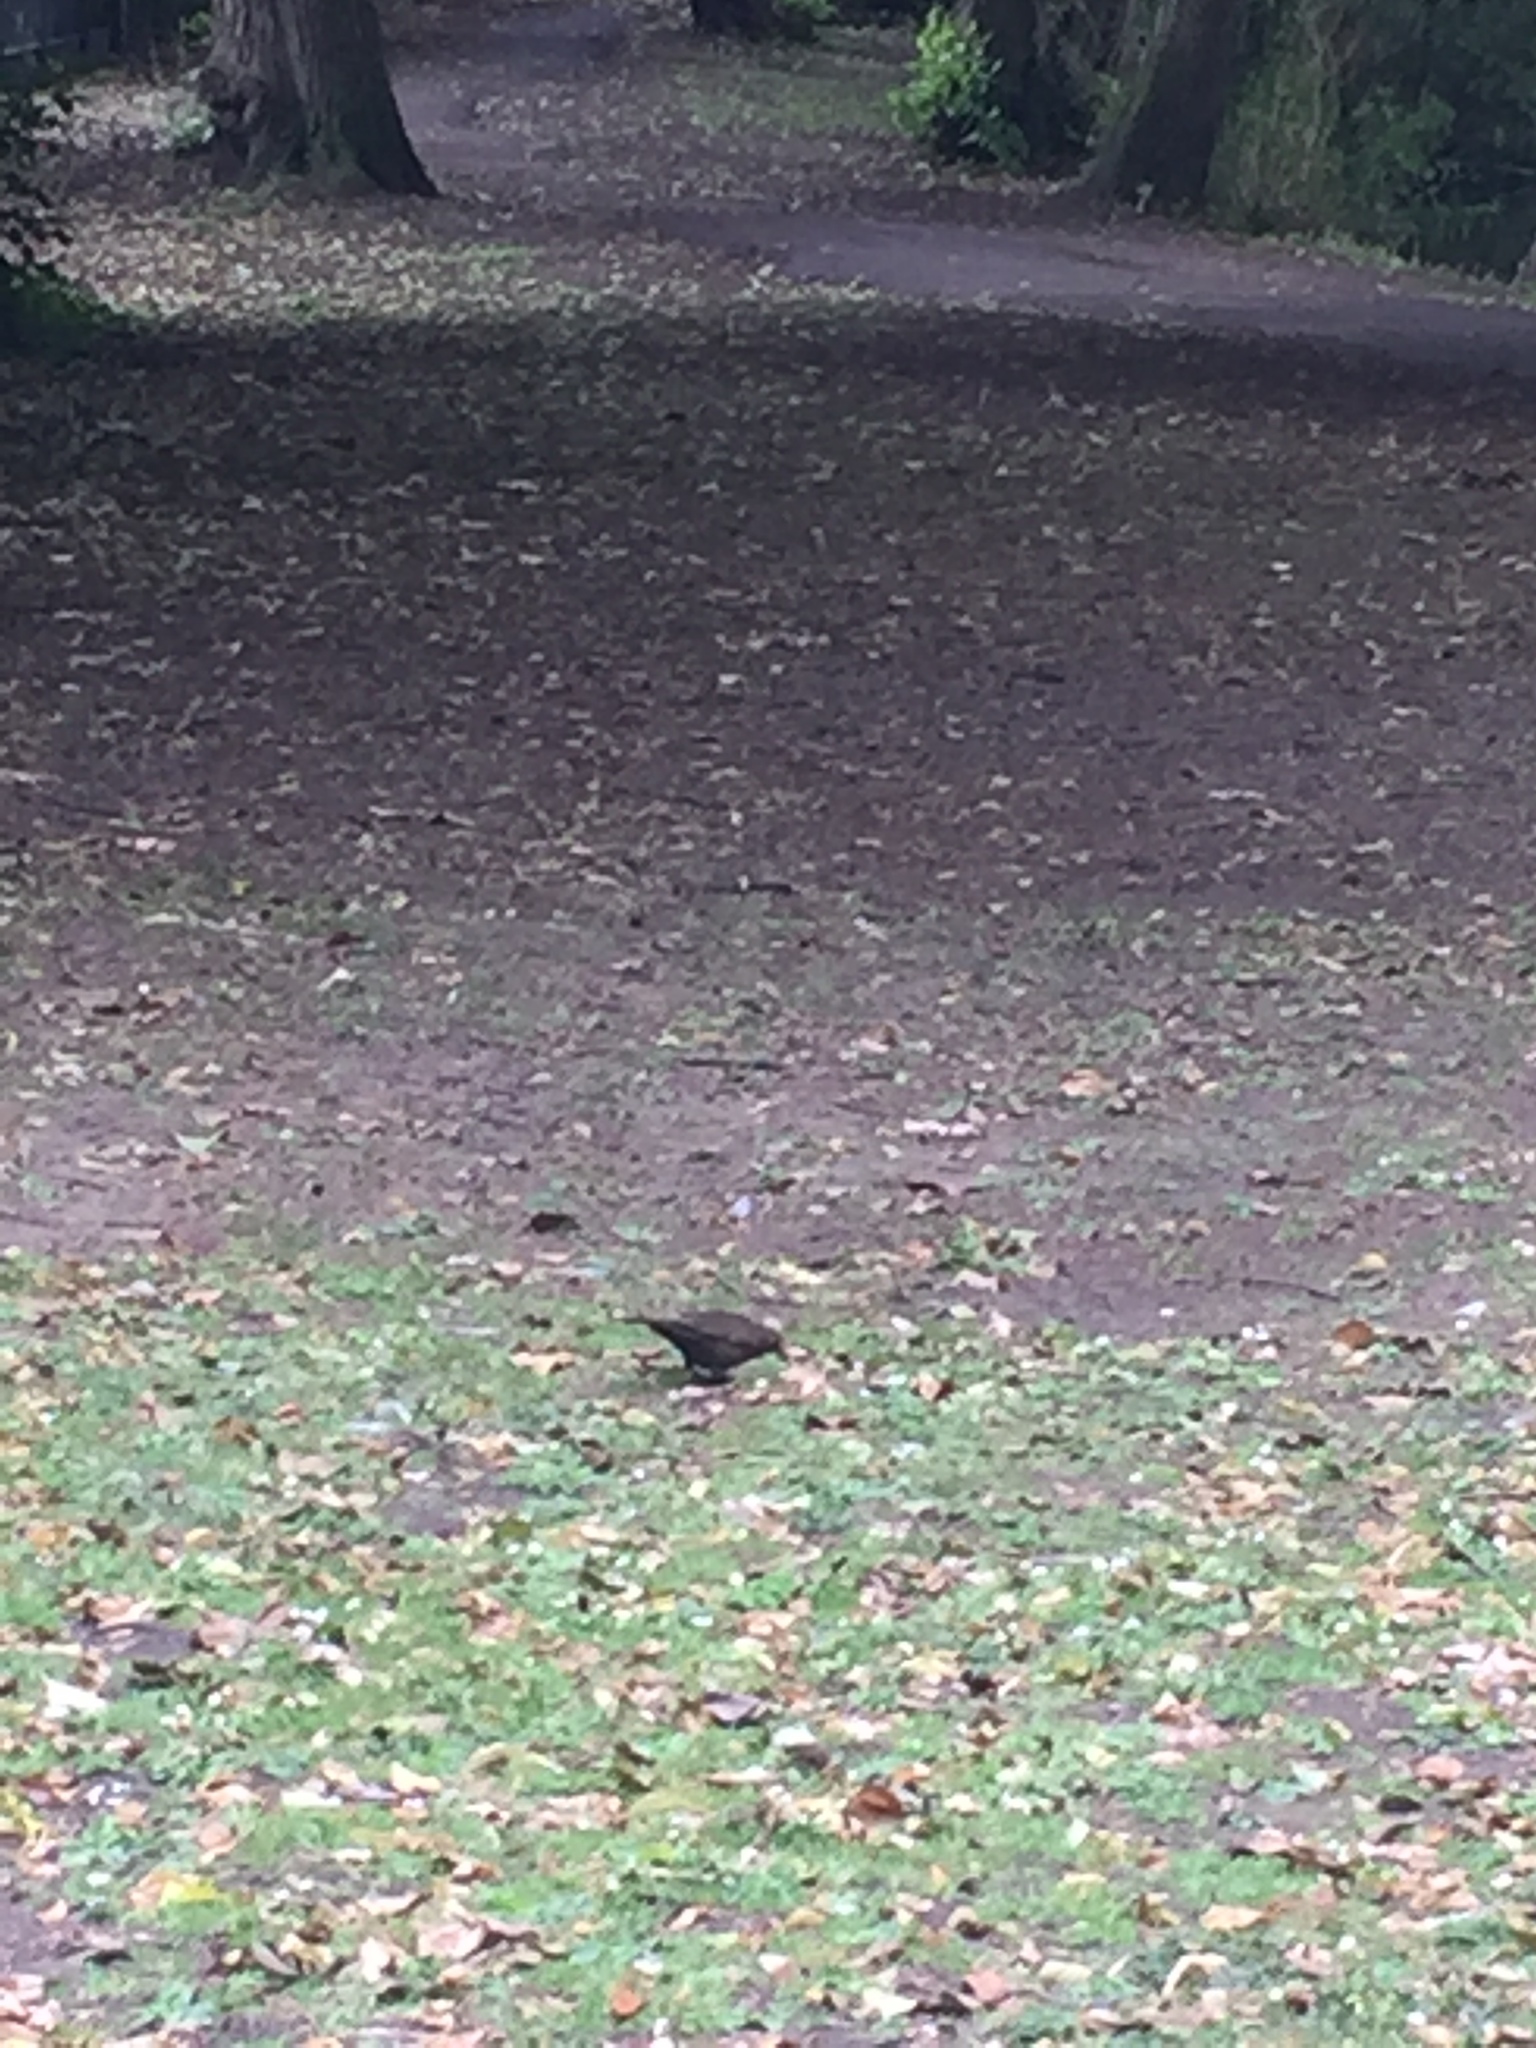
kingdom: Animalia
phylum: Chordata
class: Aves
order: Passeriformes
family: Turdidae
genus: Turdus
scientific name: Turdus merula
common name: Common blackbird
